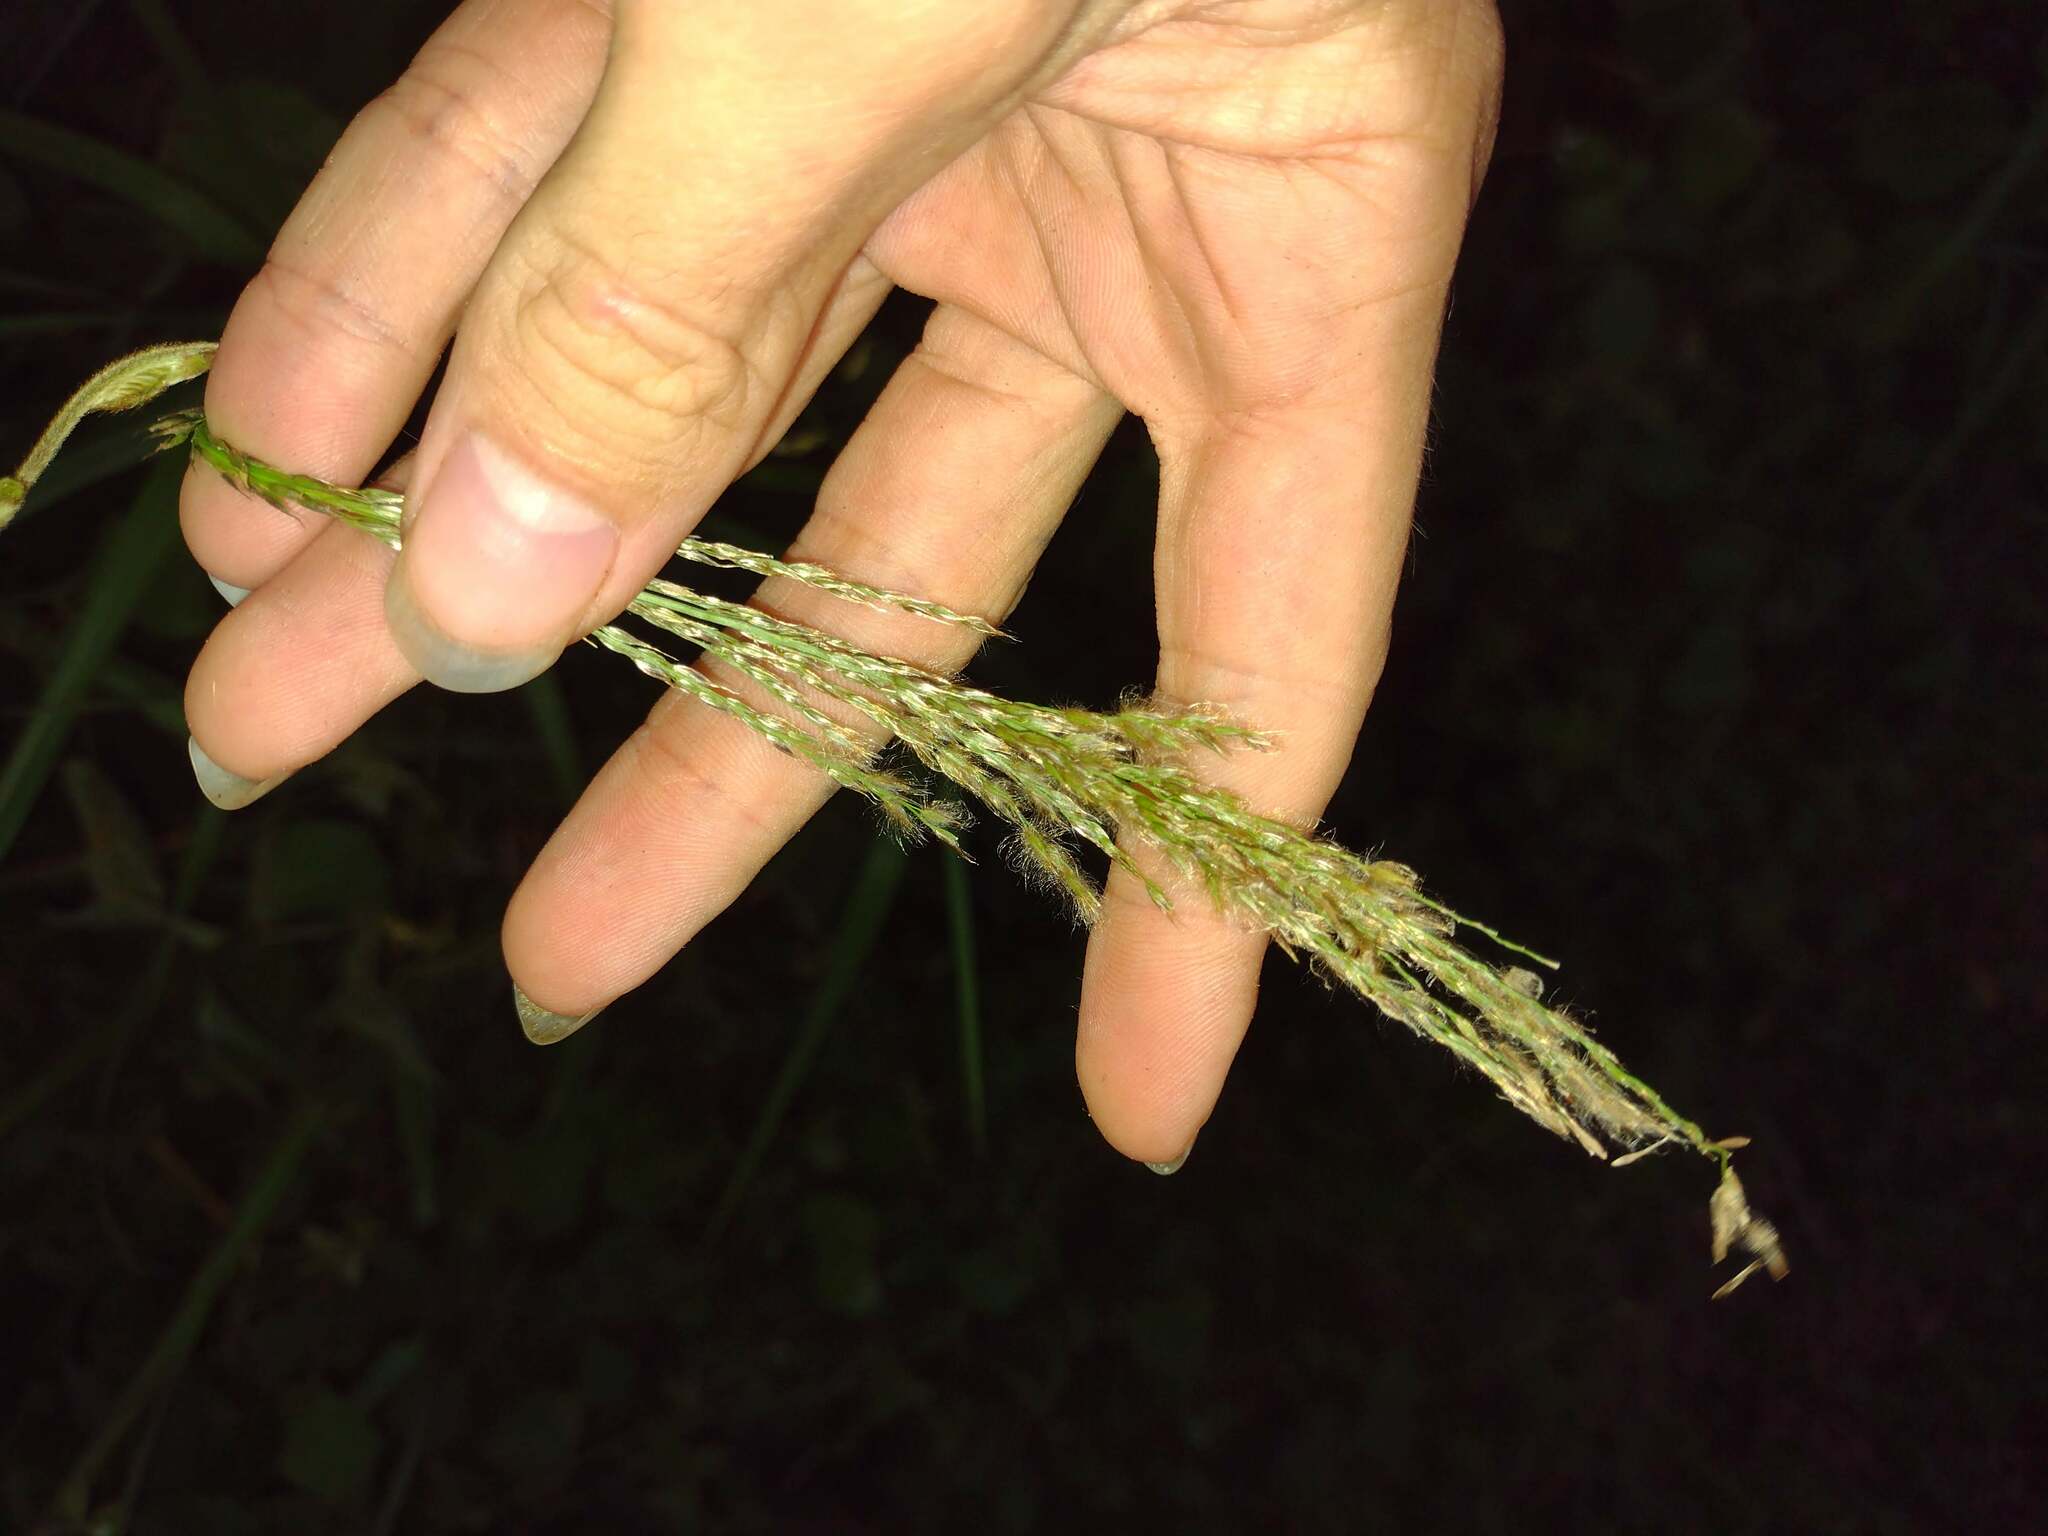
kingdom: Plantae
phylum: Tracheophyta
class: Liliopsida
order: Poales
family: Poaceae
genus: Digitaria
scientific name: Digitaria insularis
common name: Sourgrass
